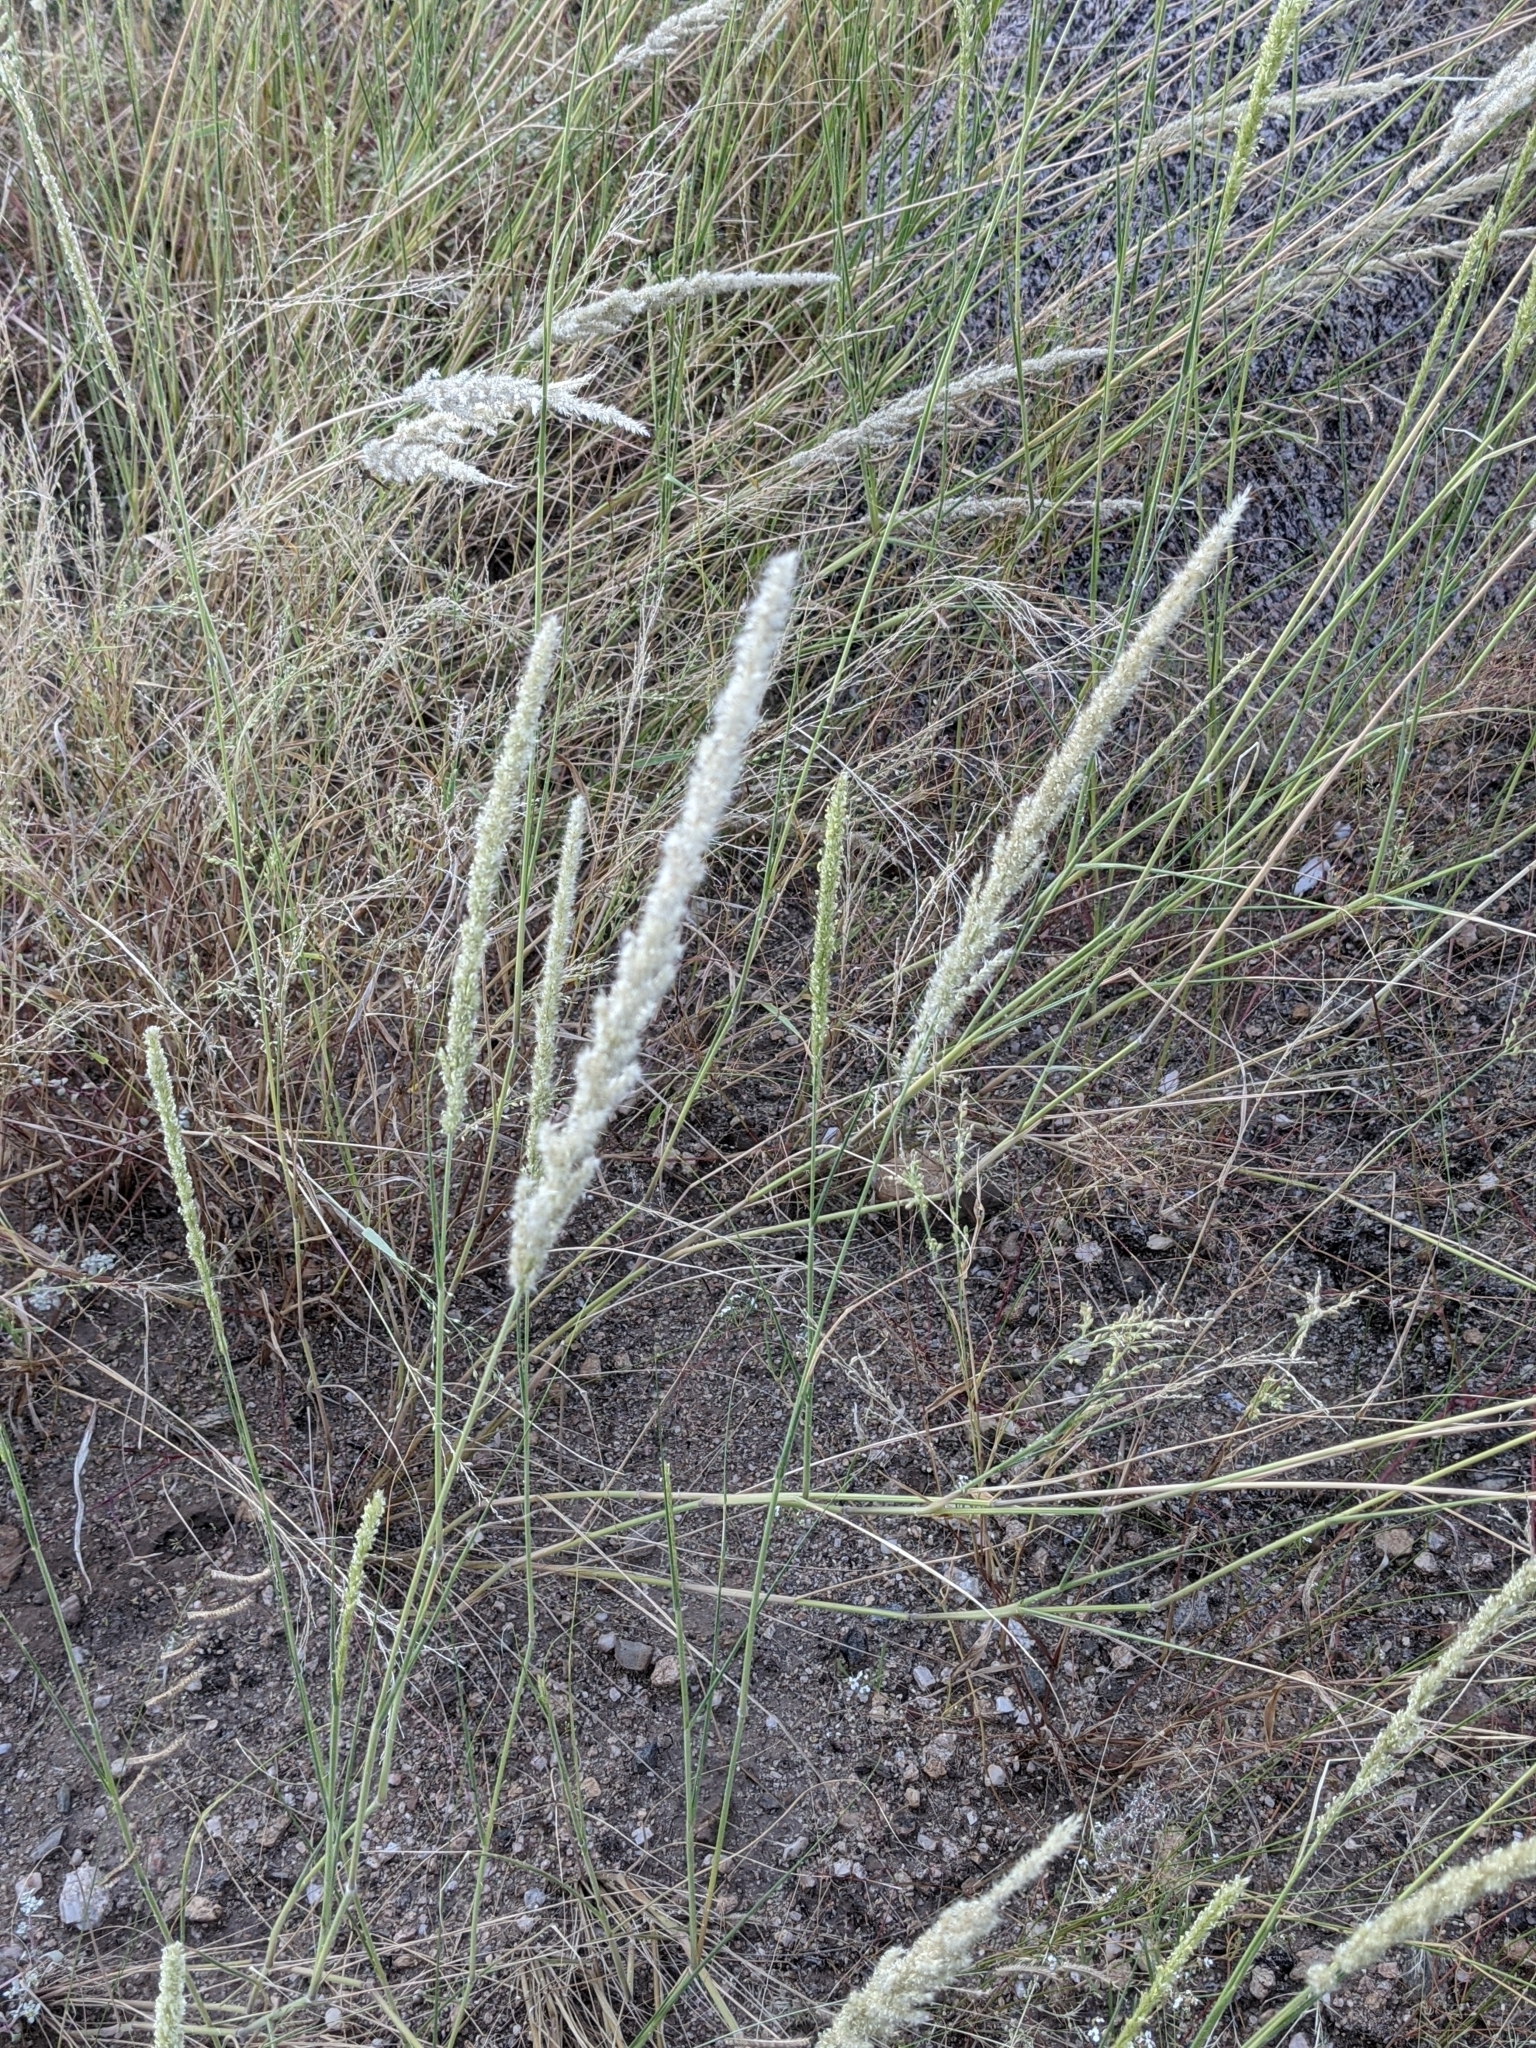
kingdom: Plantae
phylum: Tracheophyta
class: Liliopsida
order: Poales
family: Poaceae
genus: Enneapogon
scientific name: Enneapogon cenchroides
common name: Soft feather pappusgrass
